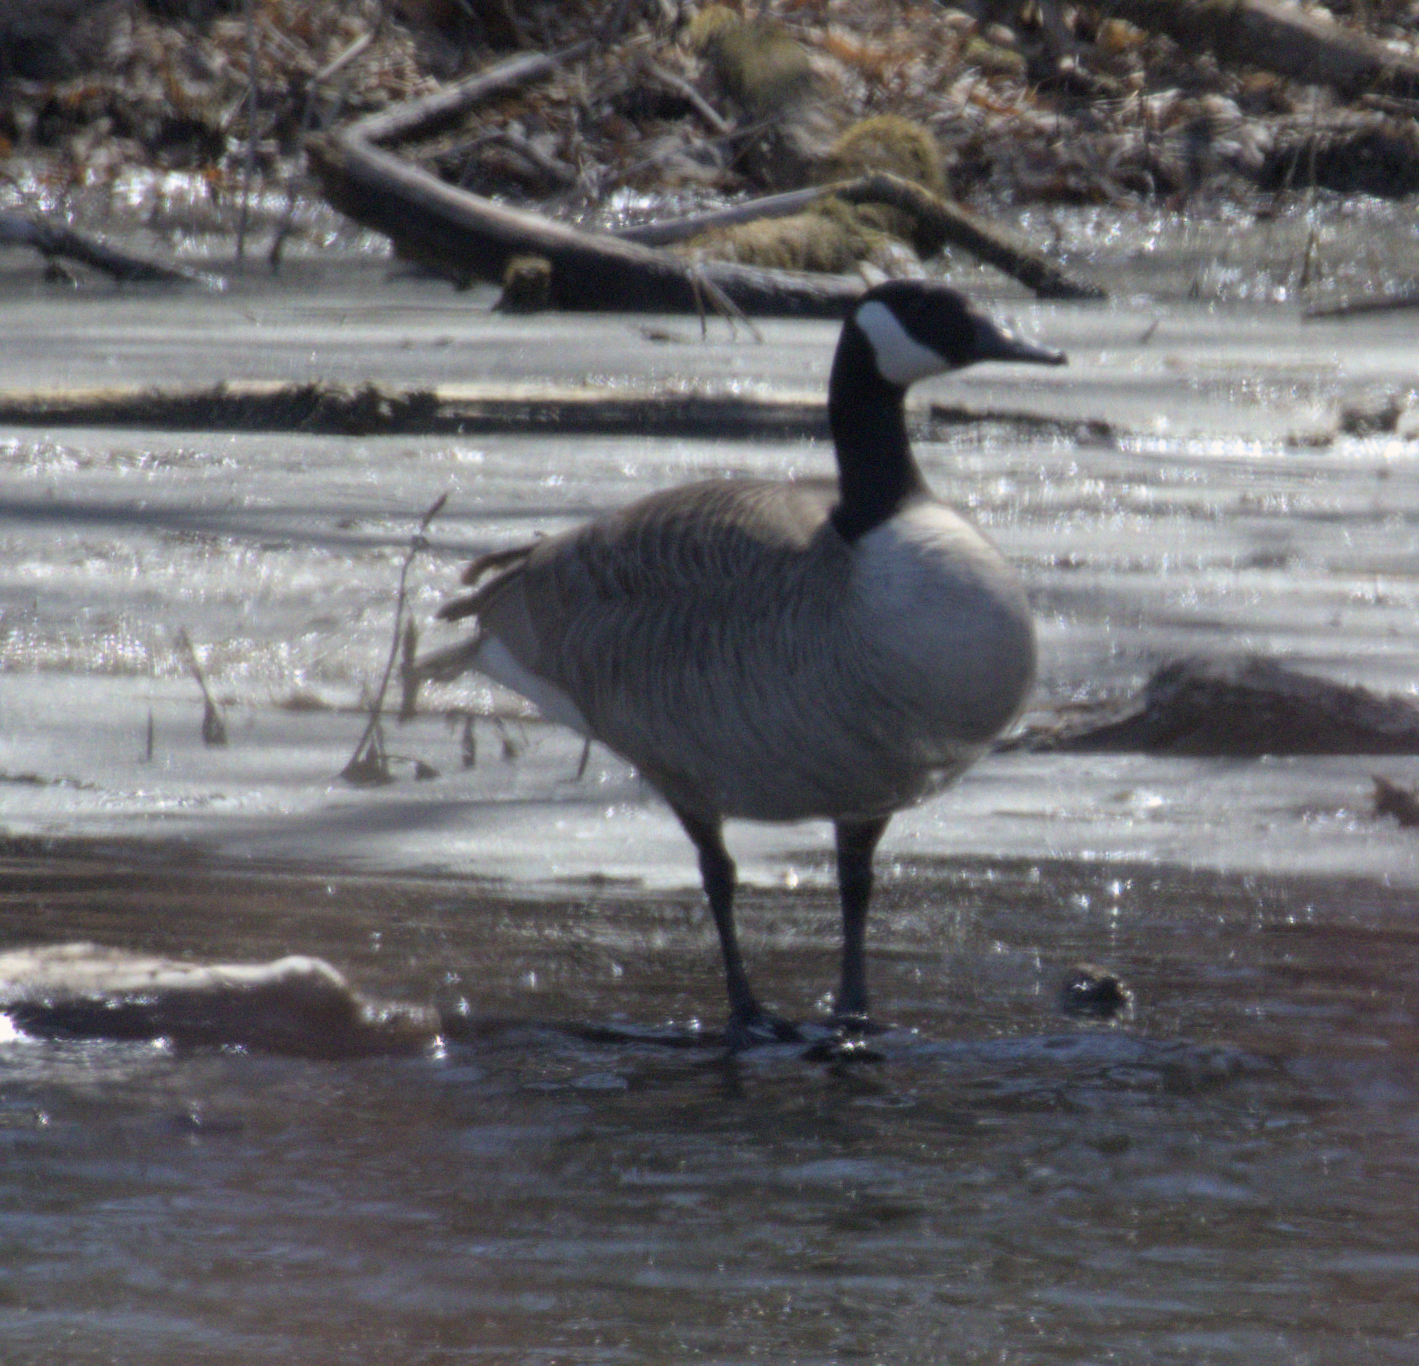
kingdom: Animalia
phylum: Chordata
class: Aves
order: Anseriformes
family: Anatidae
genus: Branta
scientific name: Branta canadensis
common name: Canada goose
